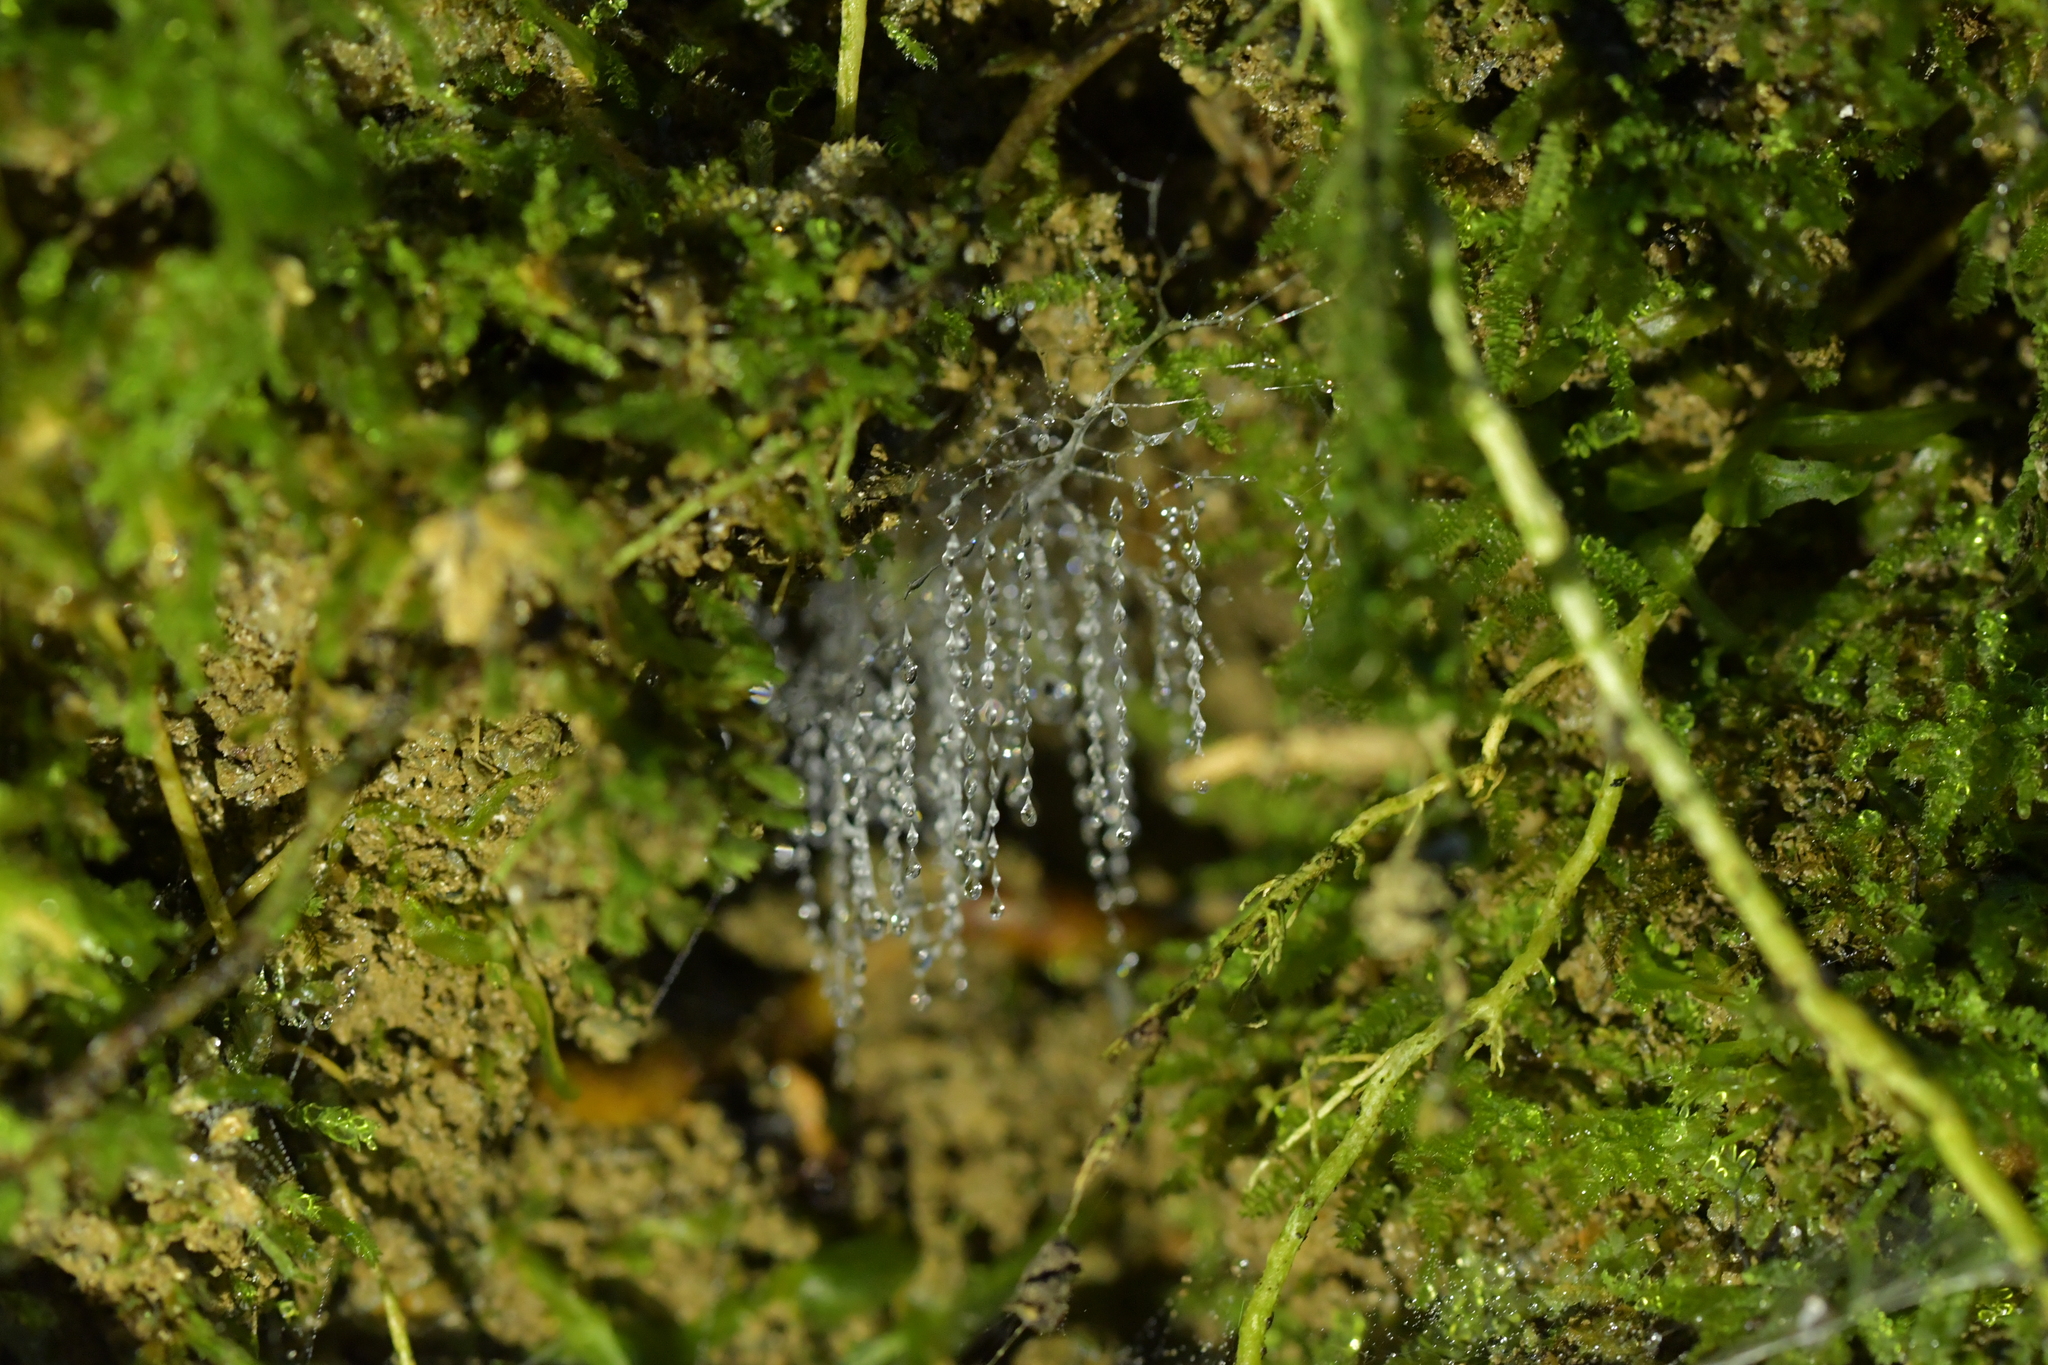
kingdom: Animalia
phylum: Arthropoda
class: Insecta
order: Diptera
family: Keroplatidae
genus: Arachnocampa
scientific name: Arachnocampa luminosa
